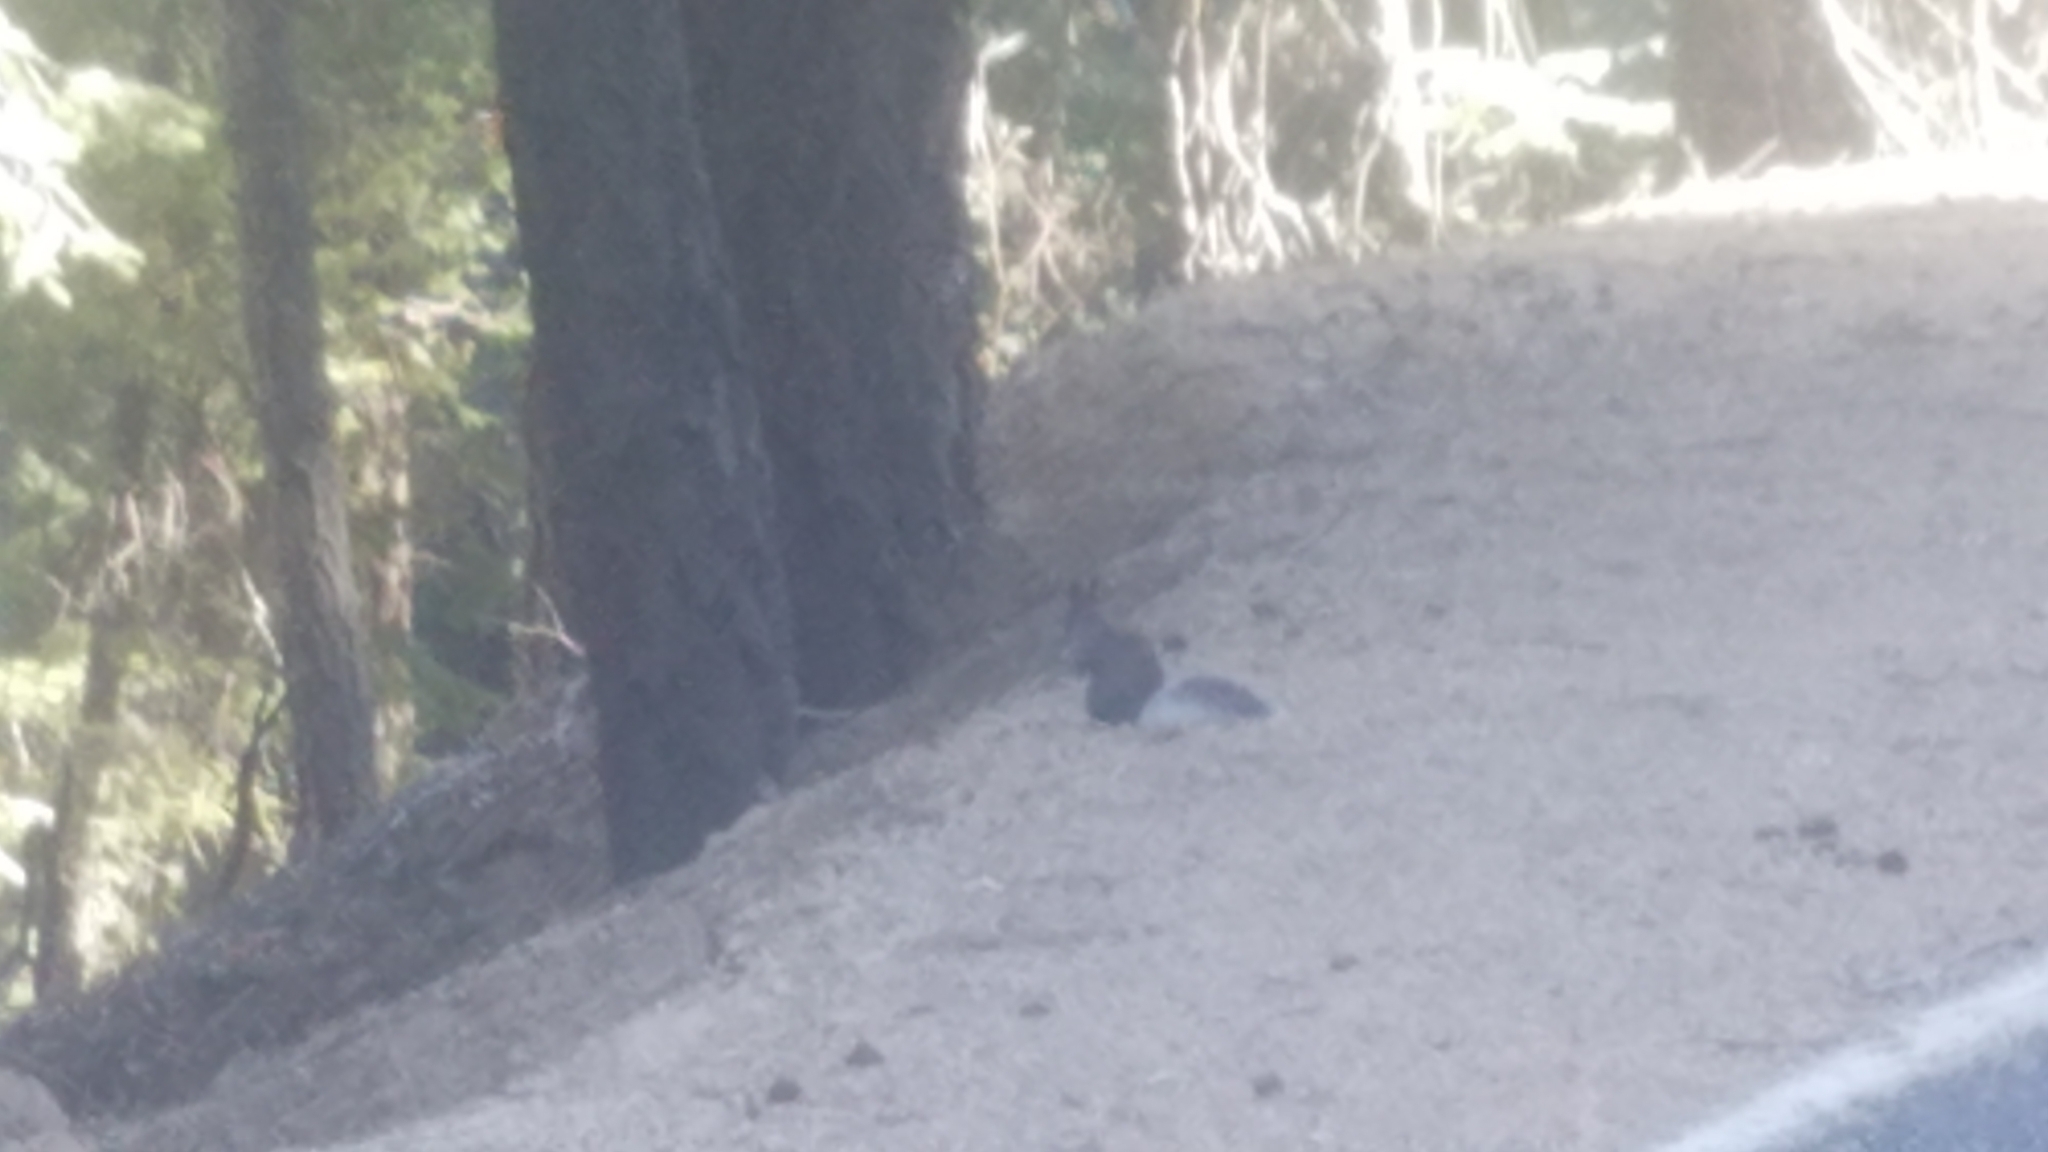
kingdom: Animalia
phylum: Chordata
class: Mammalia
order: Rodentia
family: Sciuridae
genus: Sciurus
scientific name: Sciurus aberti
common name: Abert's squirrel
